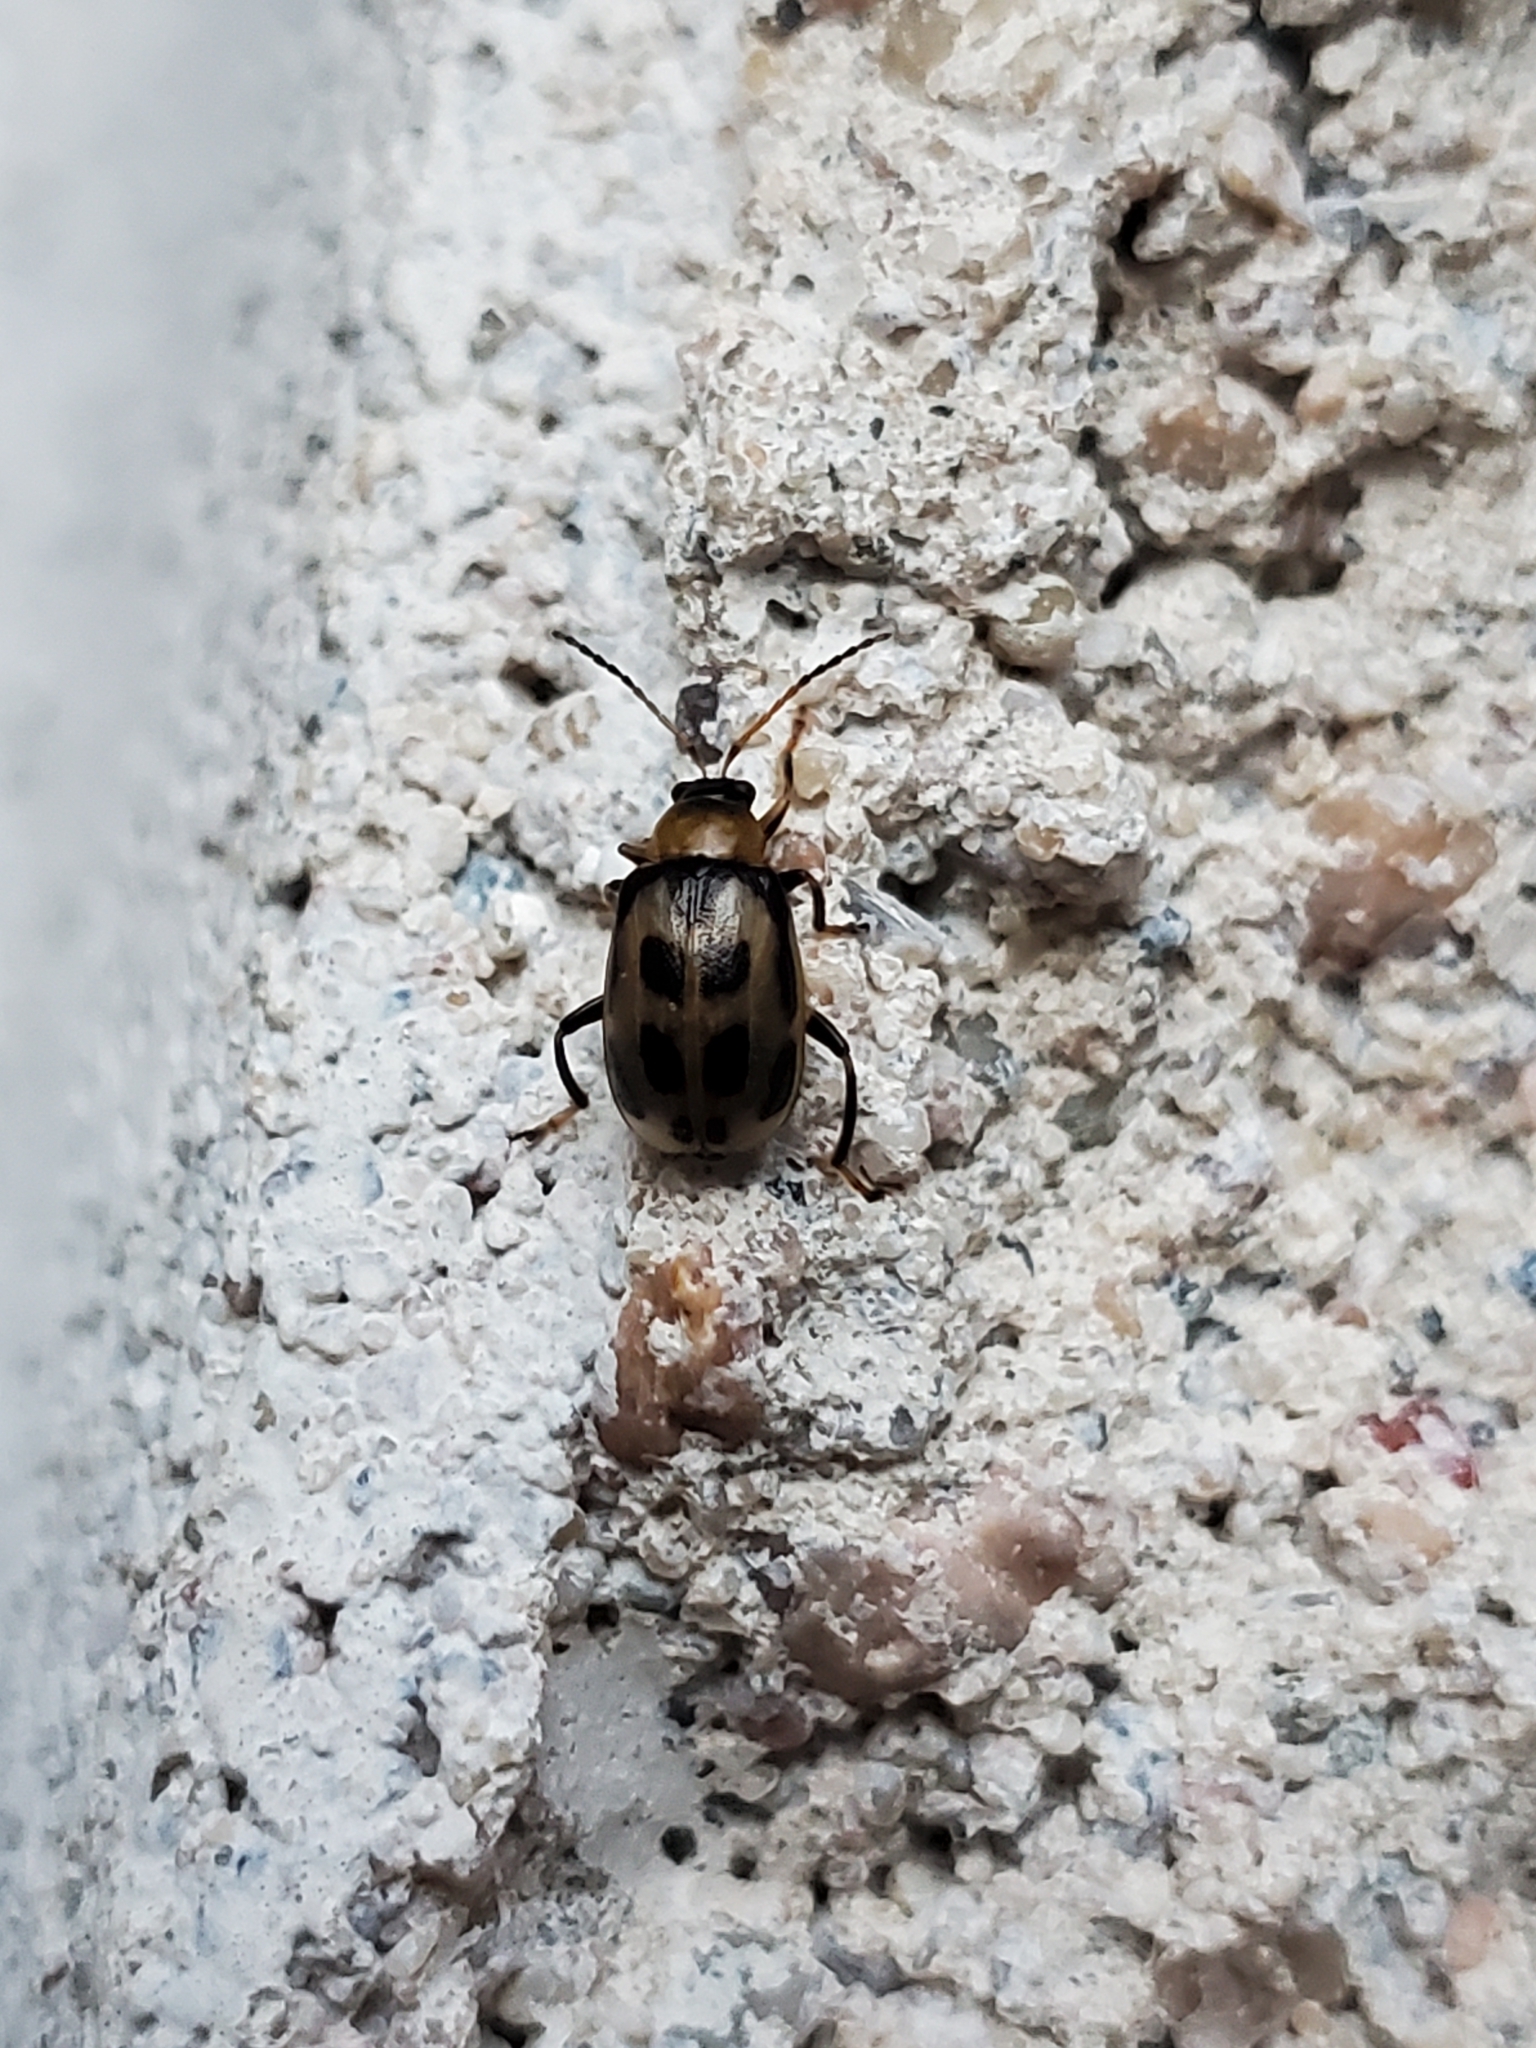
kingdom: Animalia
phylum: Arthropoda
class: Insecta
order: Coleoptera
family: Chrysomelidae
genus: Cerotoma
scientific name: Cerotoma trifurcata
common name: Bean leaf beetle
